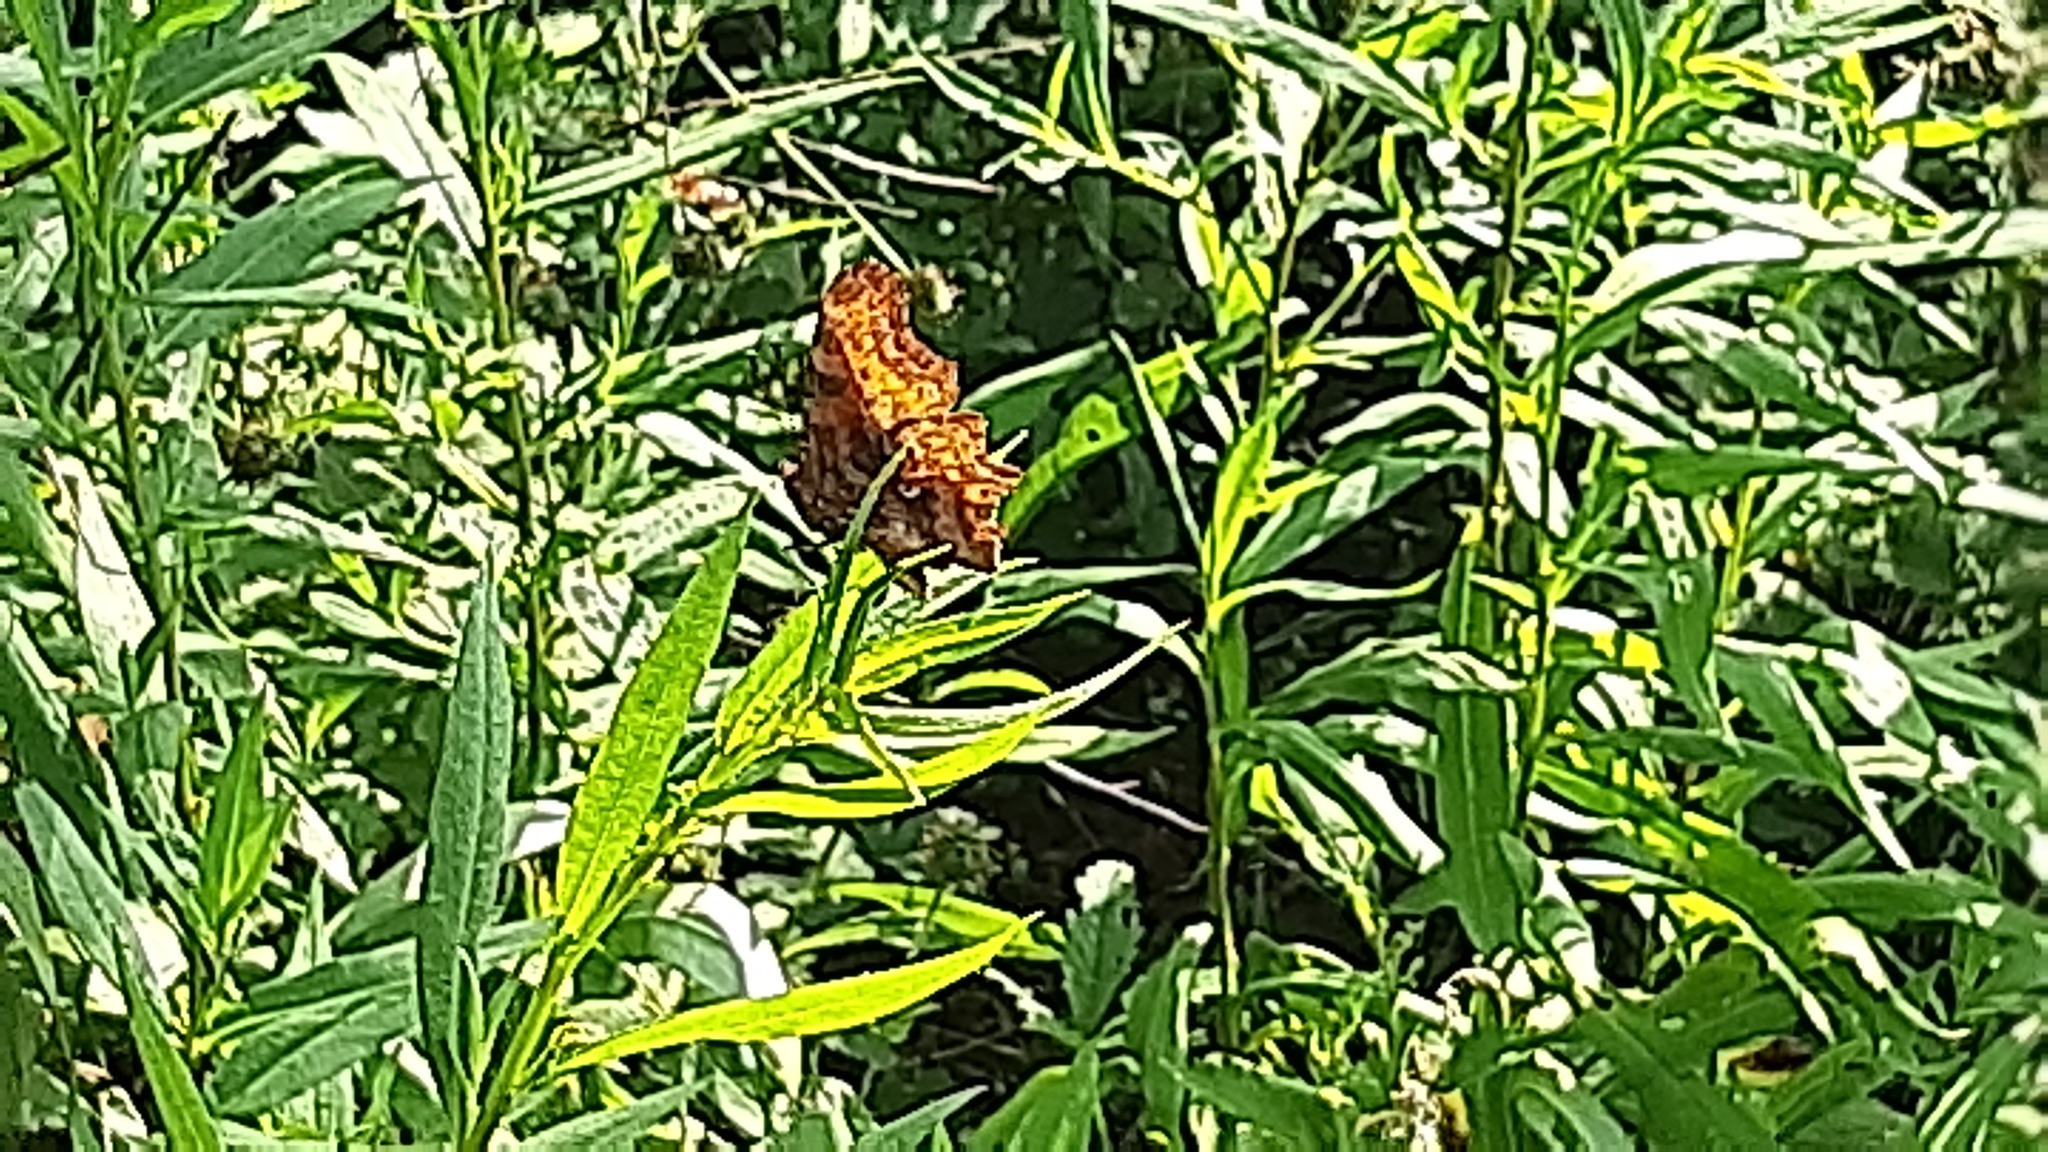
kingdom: Animalia
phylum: Arthropoda
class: Insecta
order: Lepidoptera
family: Nymphalidae
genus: Polygonia
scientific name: Polygonia c-album
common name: Comma
